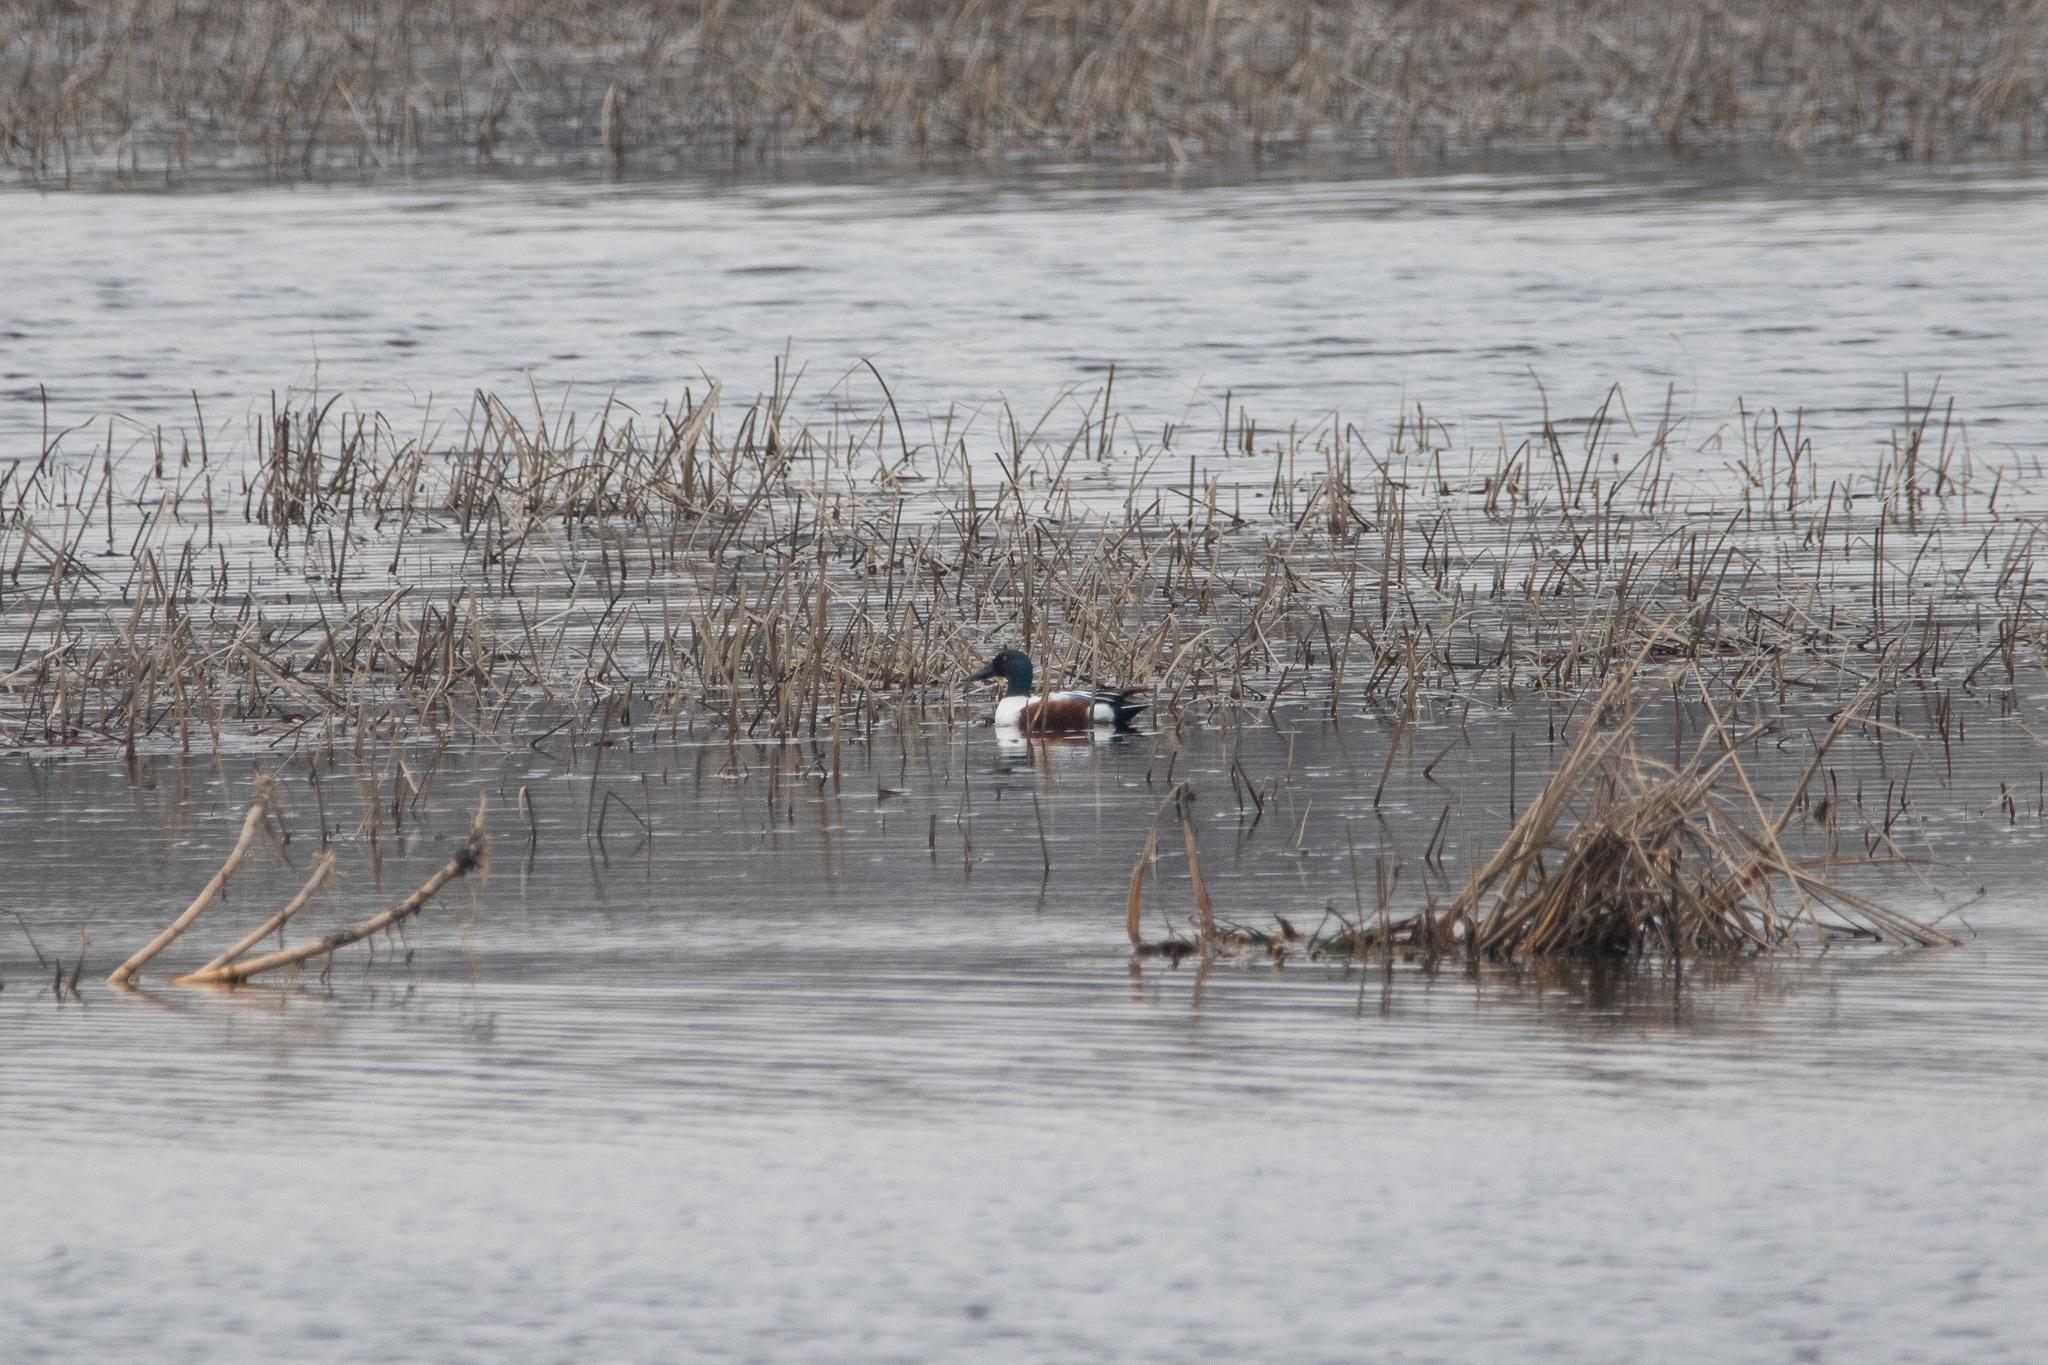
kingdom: Animalia
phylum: Chordata
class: Aves
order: Anseriformes
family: Anatidae
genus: Spatula
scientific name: Spatula clypeata
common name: Northern shoveler
